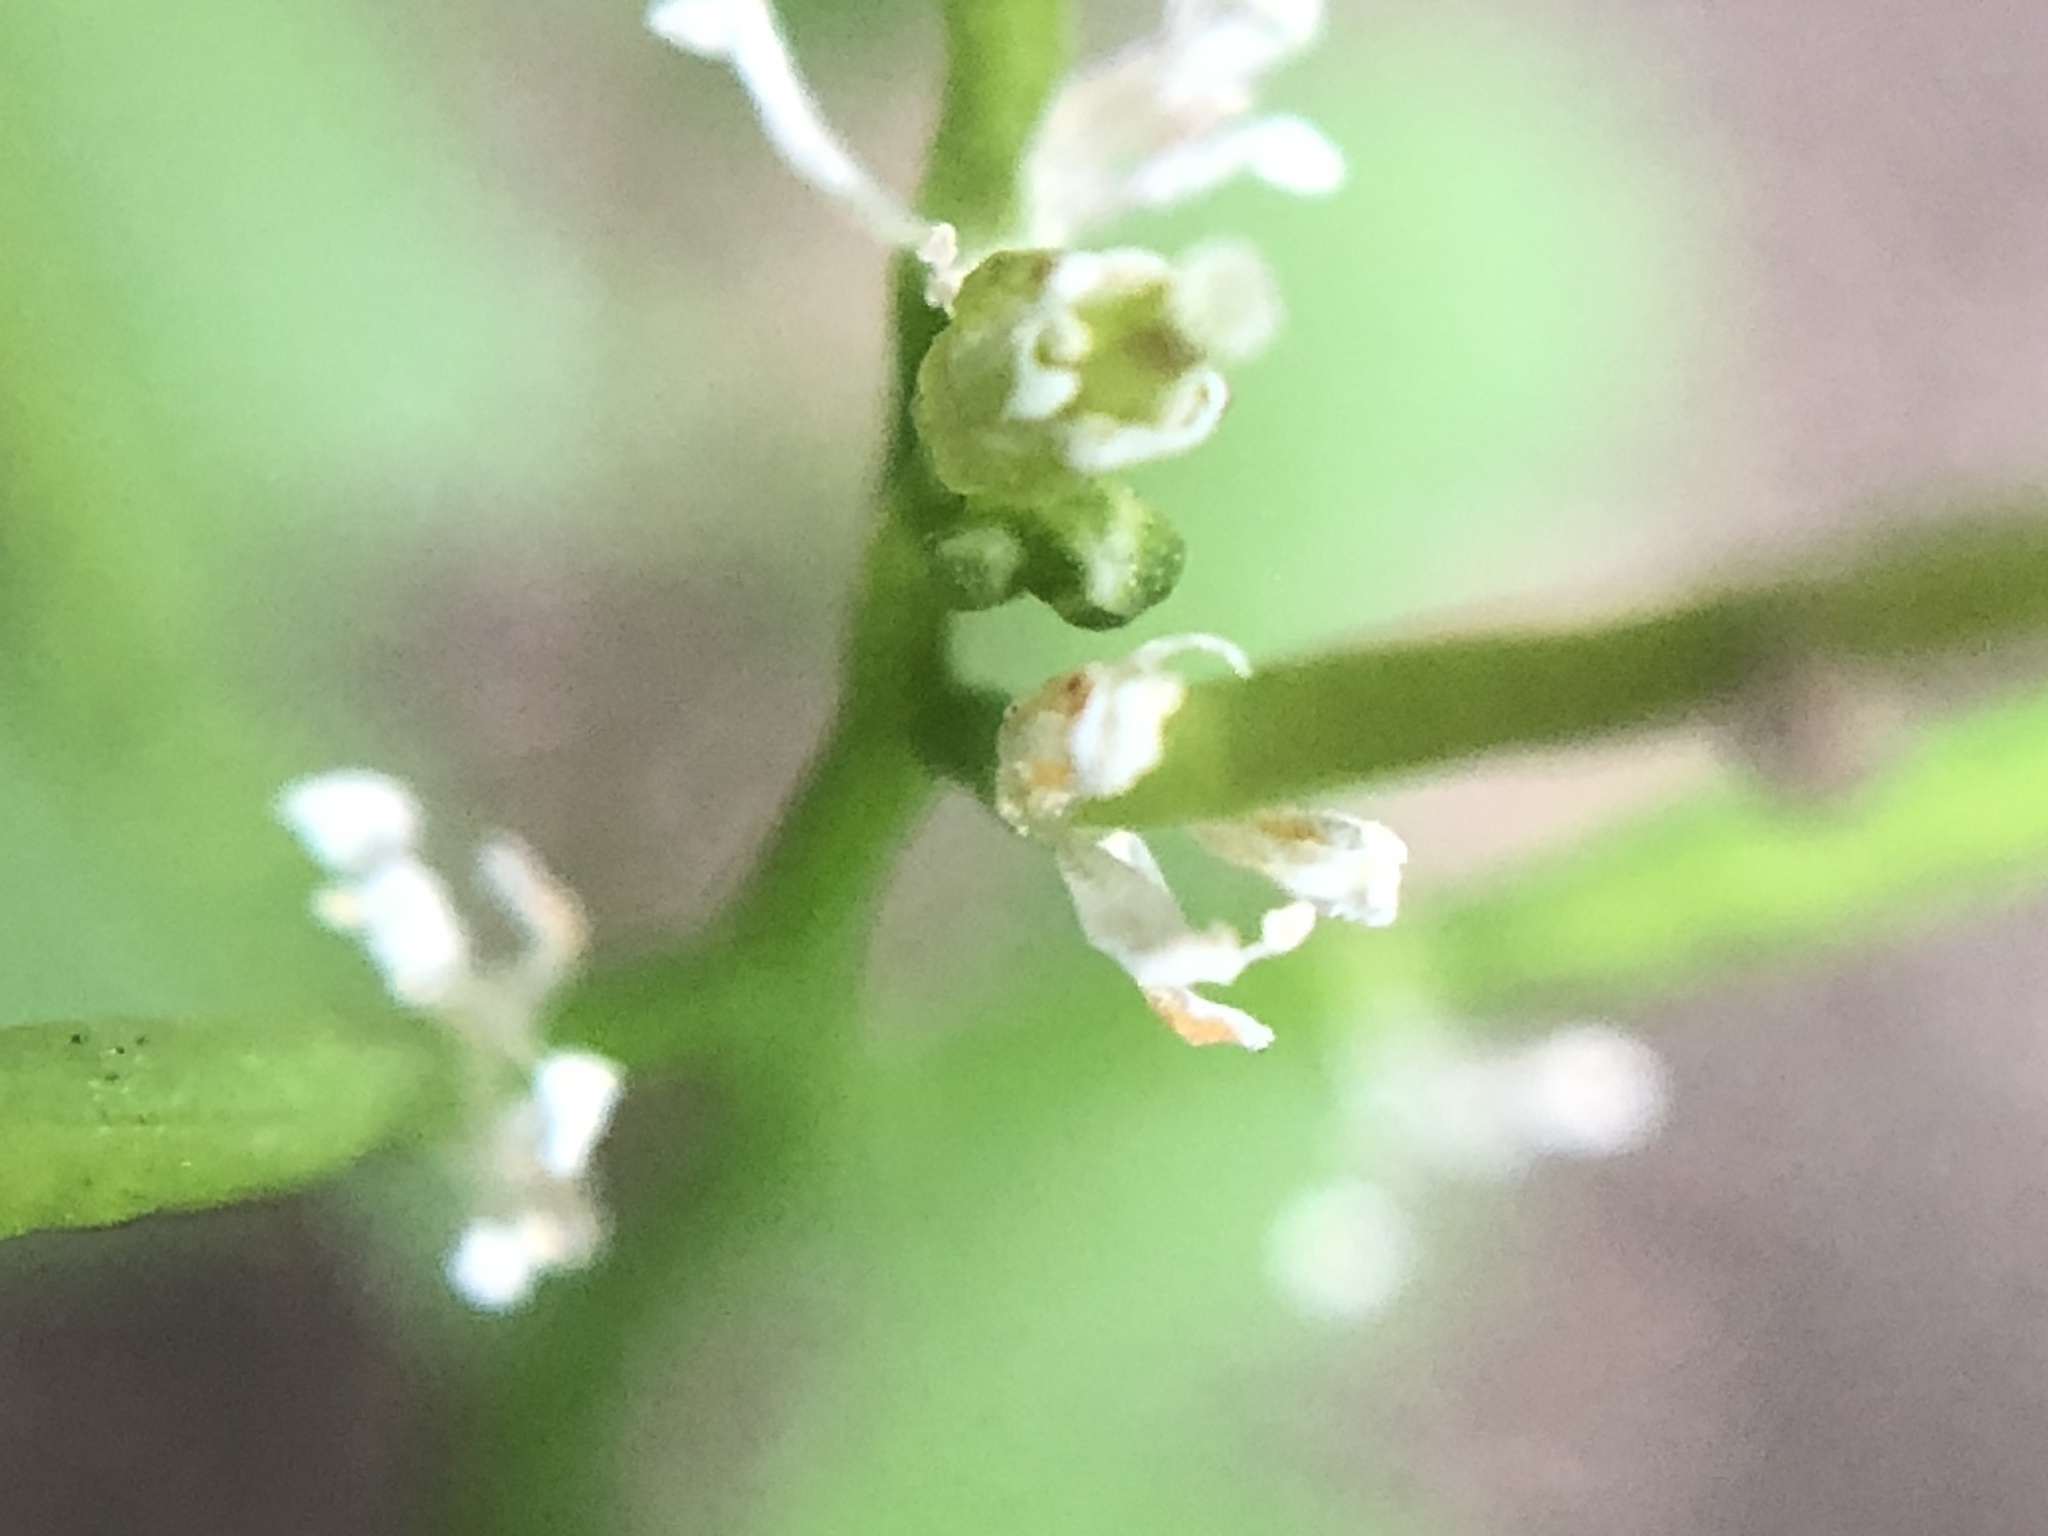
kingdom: Plantae
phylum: Tracheophyta
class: Magnoliopsida
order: Brassicales
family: Brassicaceae
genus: Cardamine
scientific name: Cardamine occulta
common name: Asian wavy bittercress
